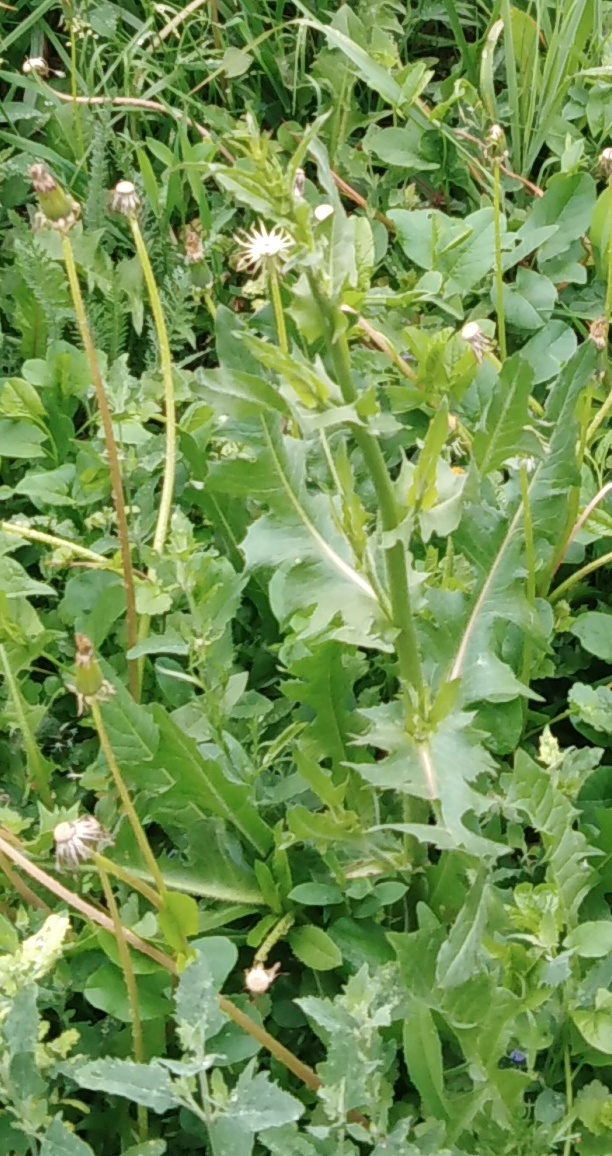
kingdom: Plantae
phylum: Tracheophyta
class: Magnoliopsida
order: Asterales
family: Asteraceae
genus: Cichorium
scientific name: Cichorium intybus
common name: Chicory
